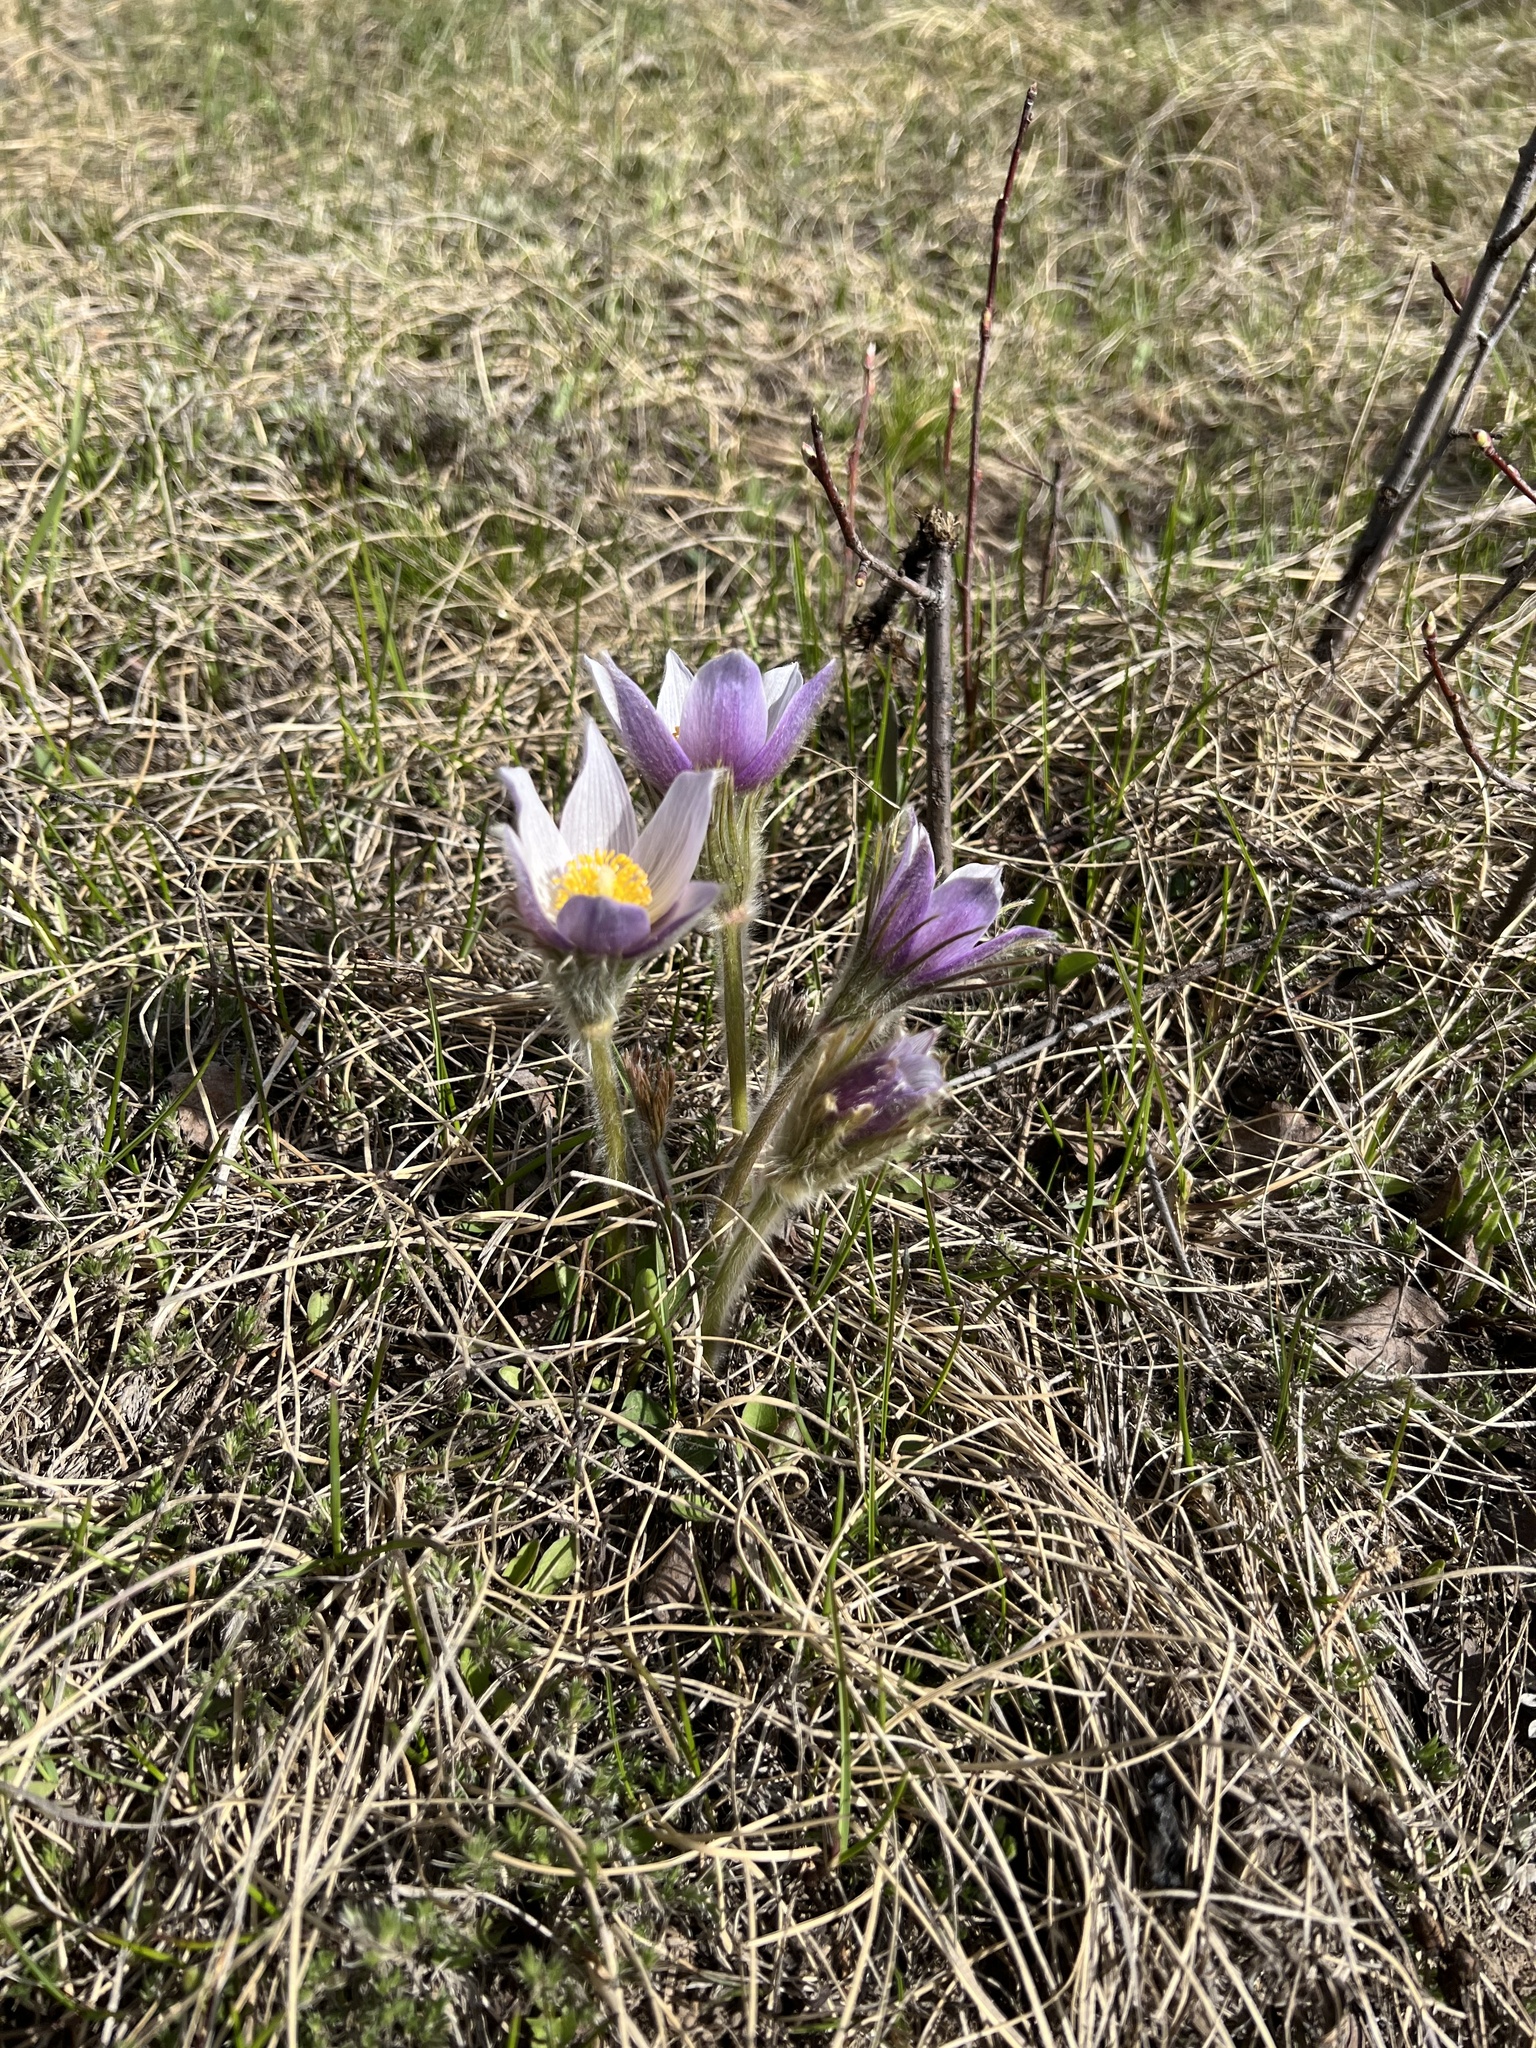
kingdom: Plantae
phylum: Tracheophyta
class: Magnoliopsida
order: Ranunculales
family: Ranunculaceae
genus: Pulsatilla
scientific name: Pulsatilla nuttalliana
